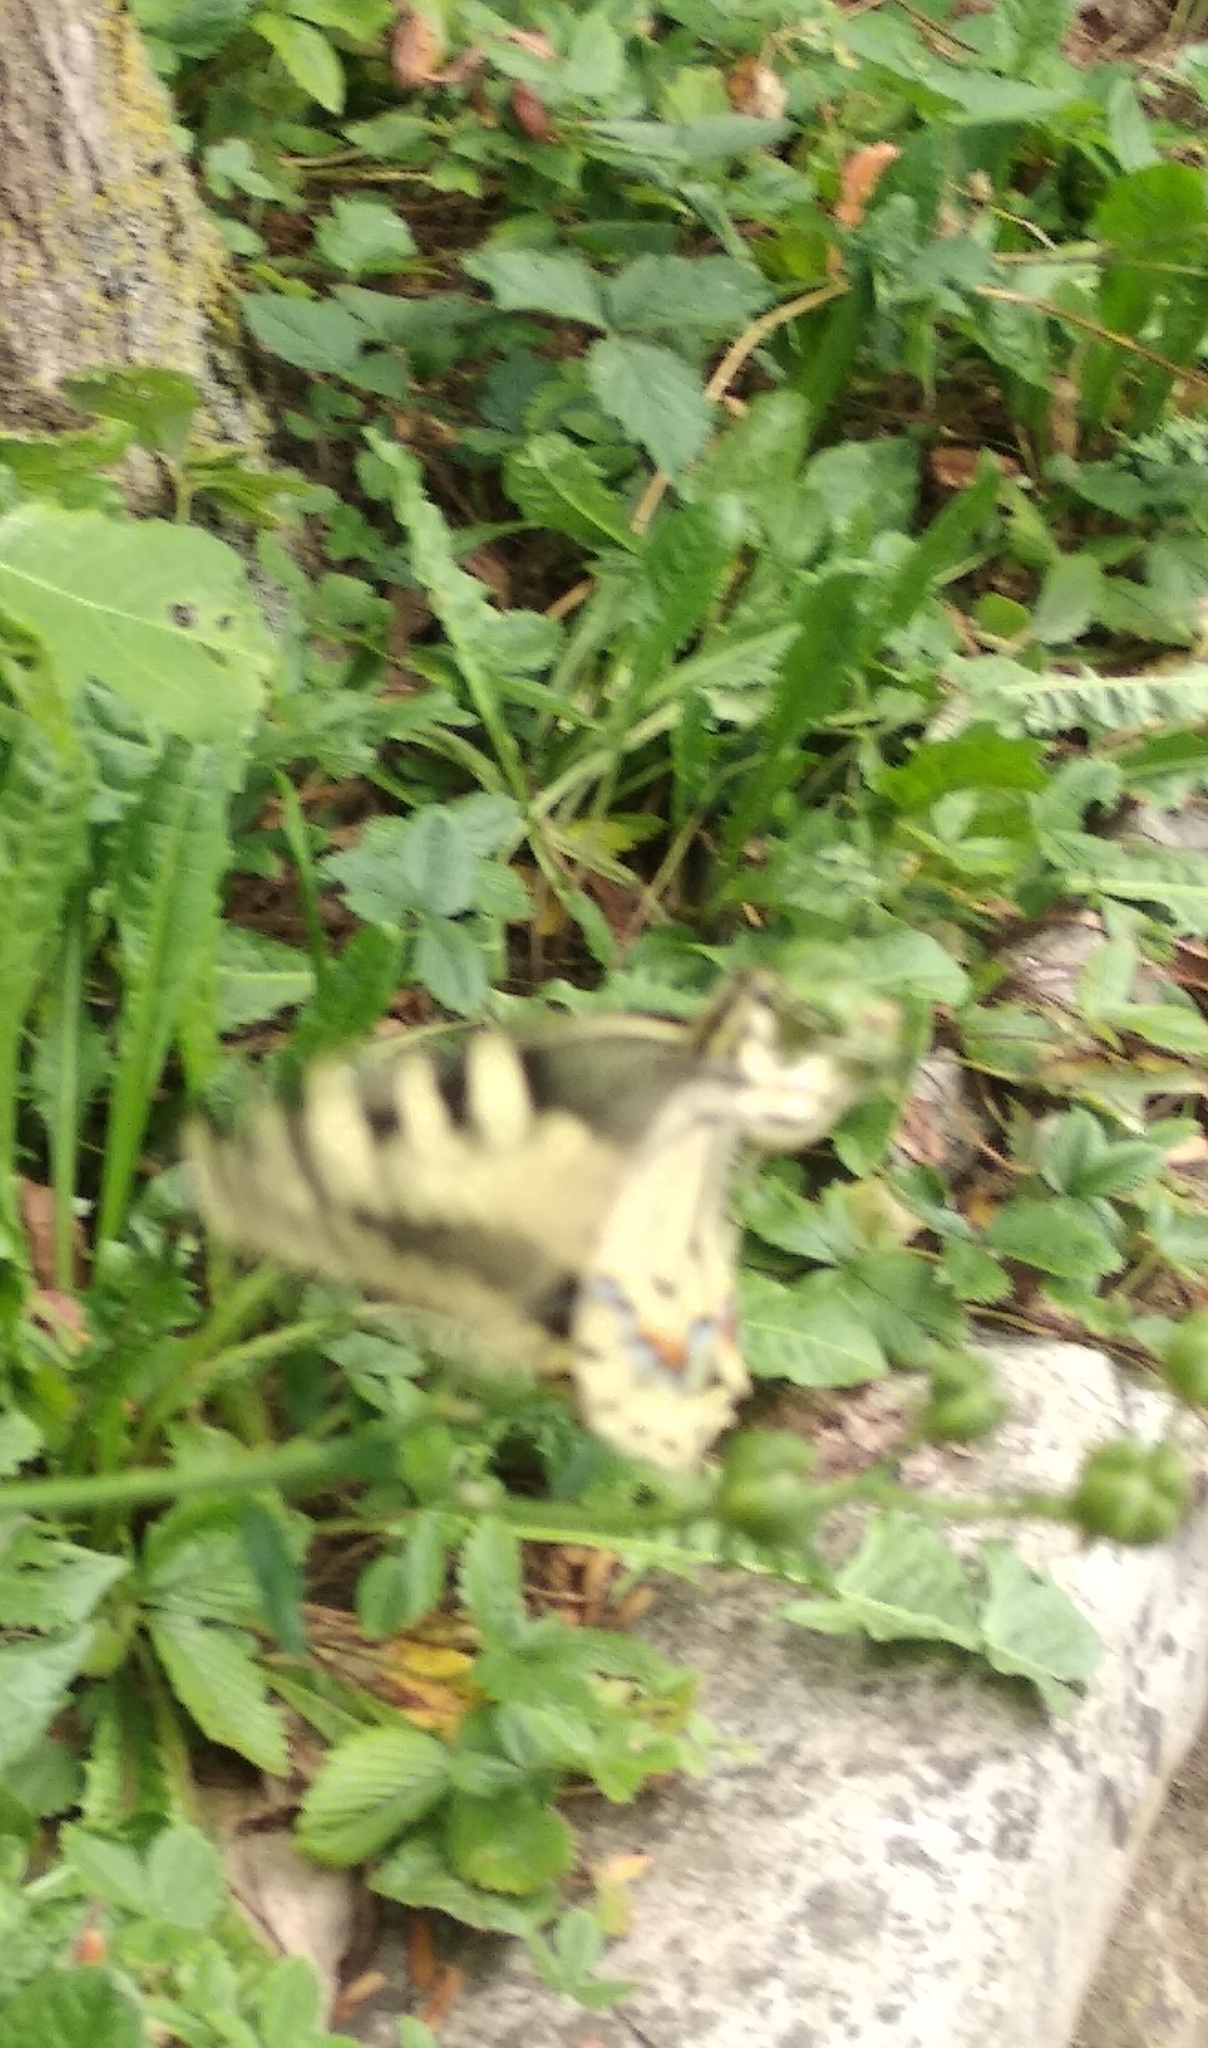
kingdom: Animalia
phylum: Arthropoda
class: Insecta
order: Lepidoptera
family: Papilionidae
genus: Papilio
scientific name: Papilio machaon
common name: Swallowtail
